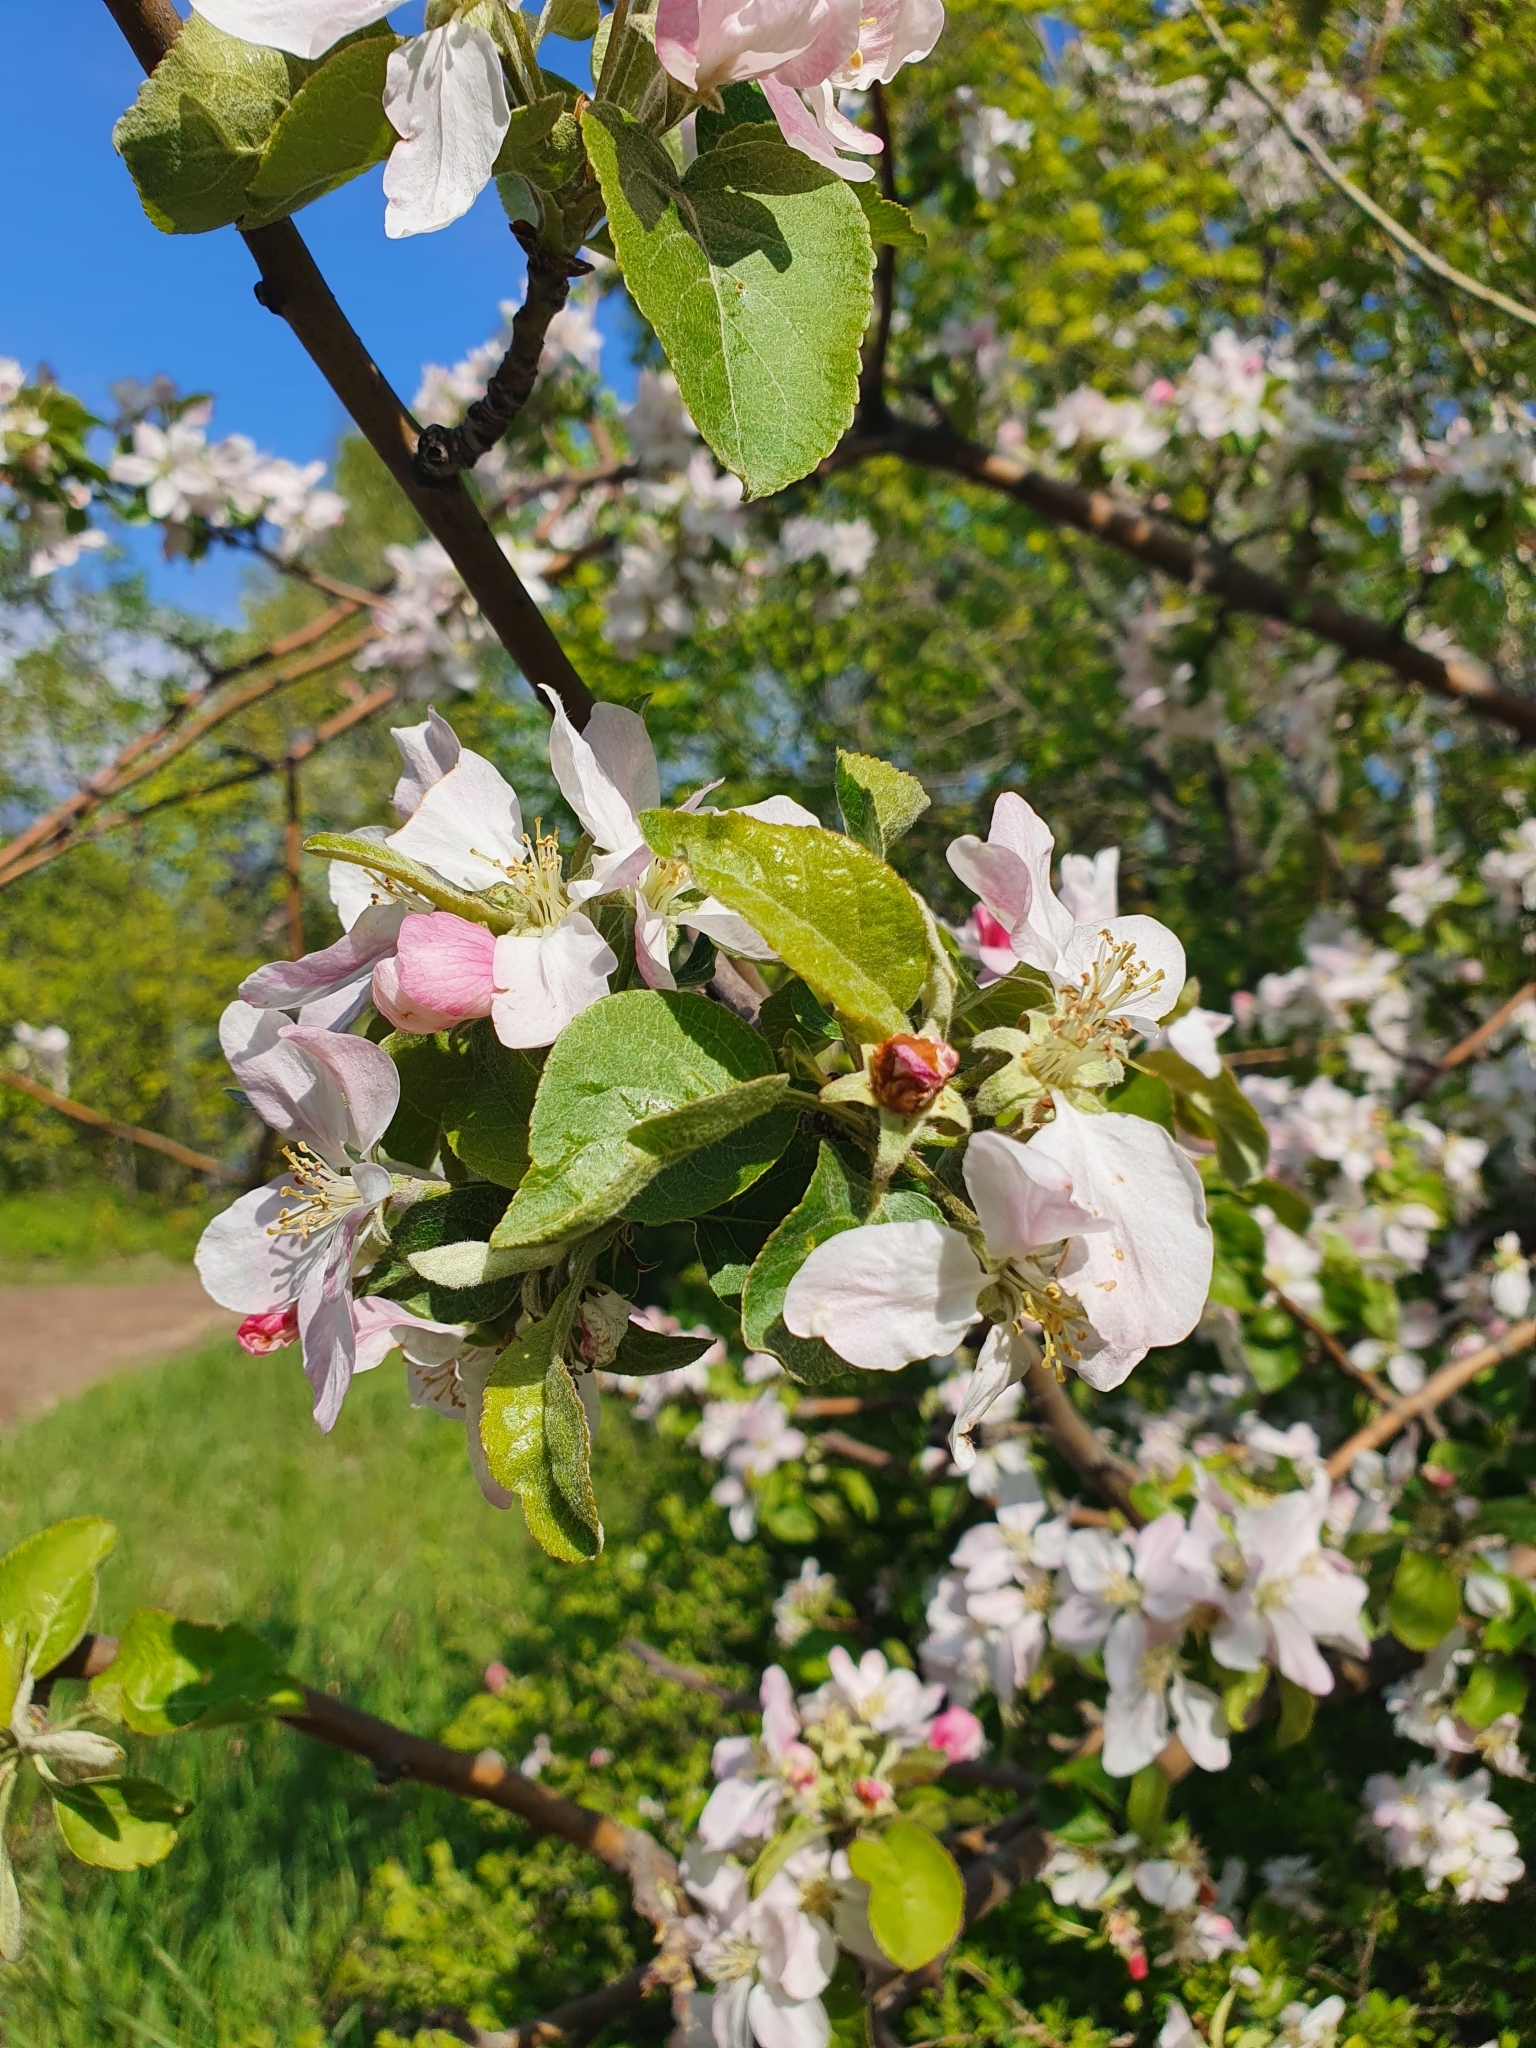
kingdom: Plantae
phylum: Tracheophyta
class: Magnoliopsida
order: Rosales
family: Rosaceae
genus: Malus
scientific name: Malus domestica
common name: Apple
